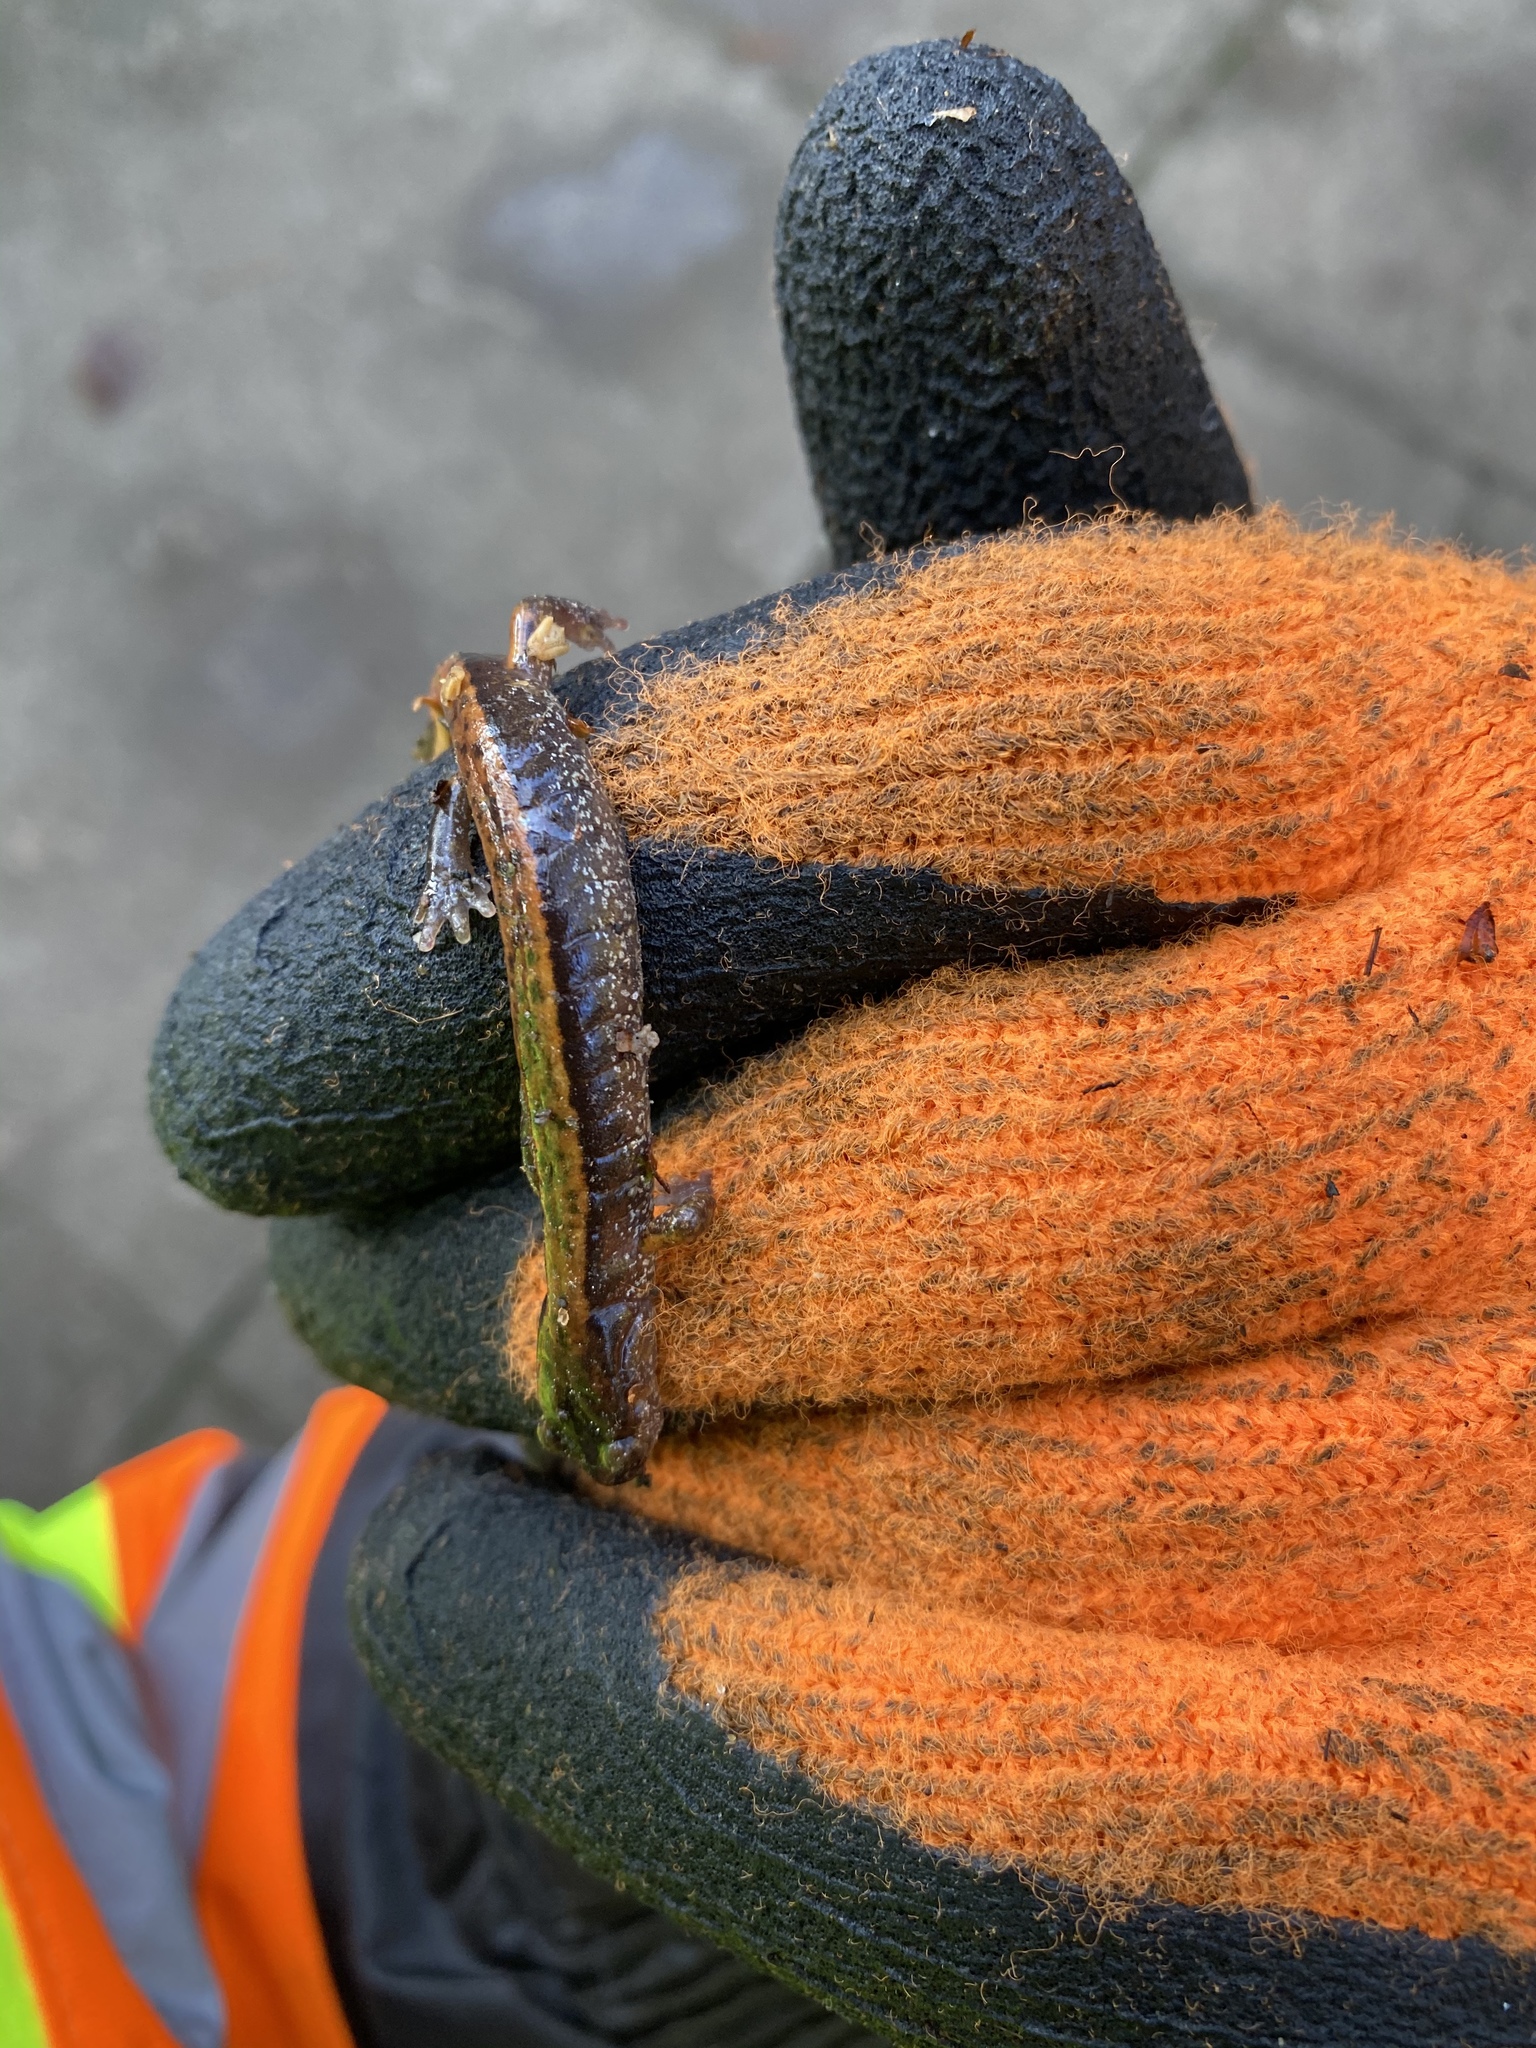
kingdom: Animalia
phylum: Chordata
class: Amphibia
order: Caudata
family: Plethodontidae
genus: Plethodon
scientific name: Plethodon vehiculum
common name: Western red-backed salamander
